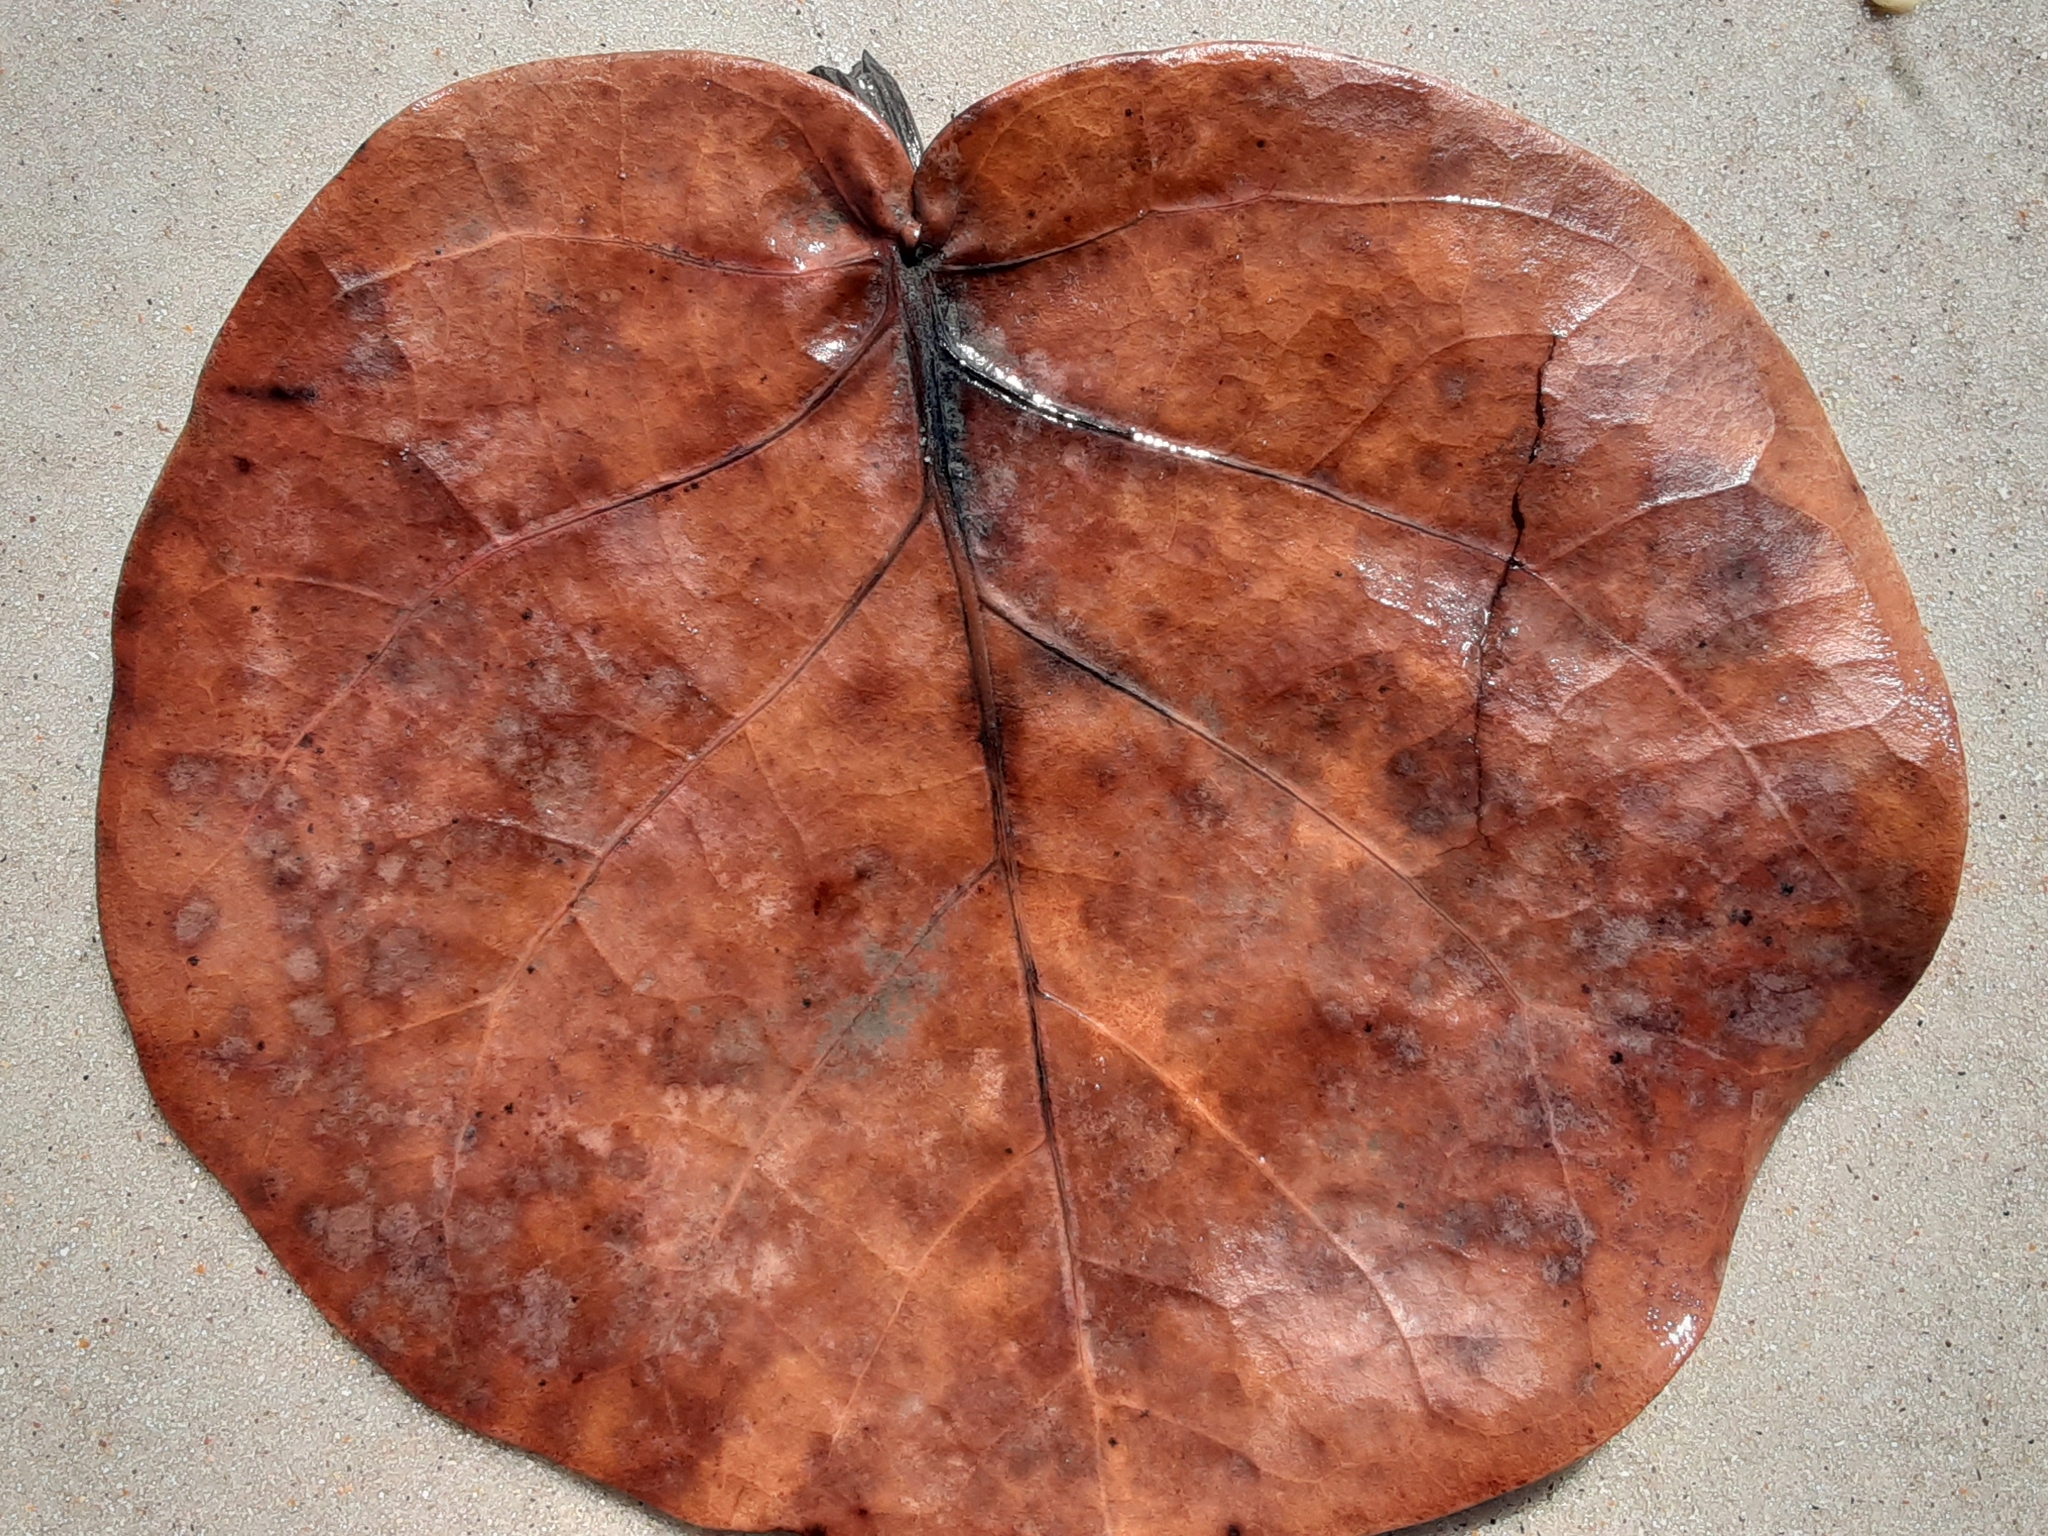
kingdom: Plantae
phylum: Tracheophyta
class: Magnoliopsida
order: Caryophyllales
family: Polygonaceae
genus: Coccoloba
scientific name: Coccoloba uvifera
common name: Seagrape
